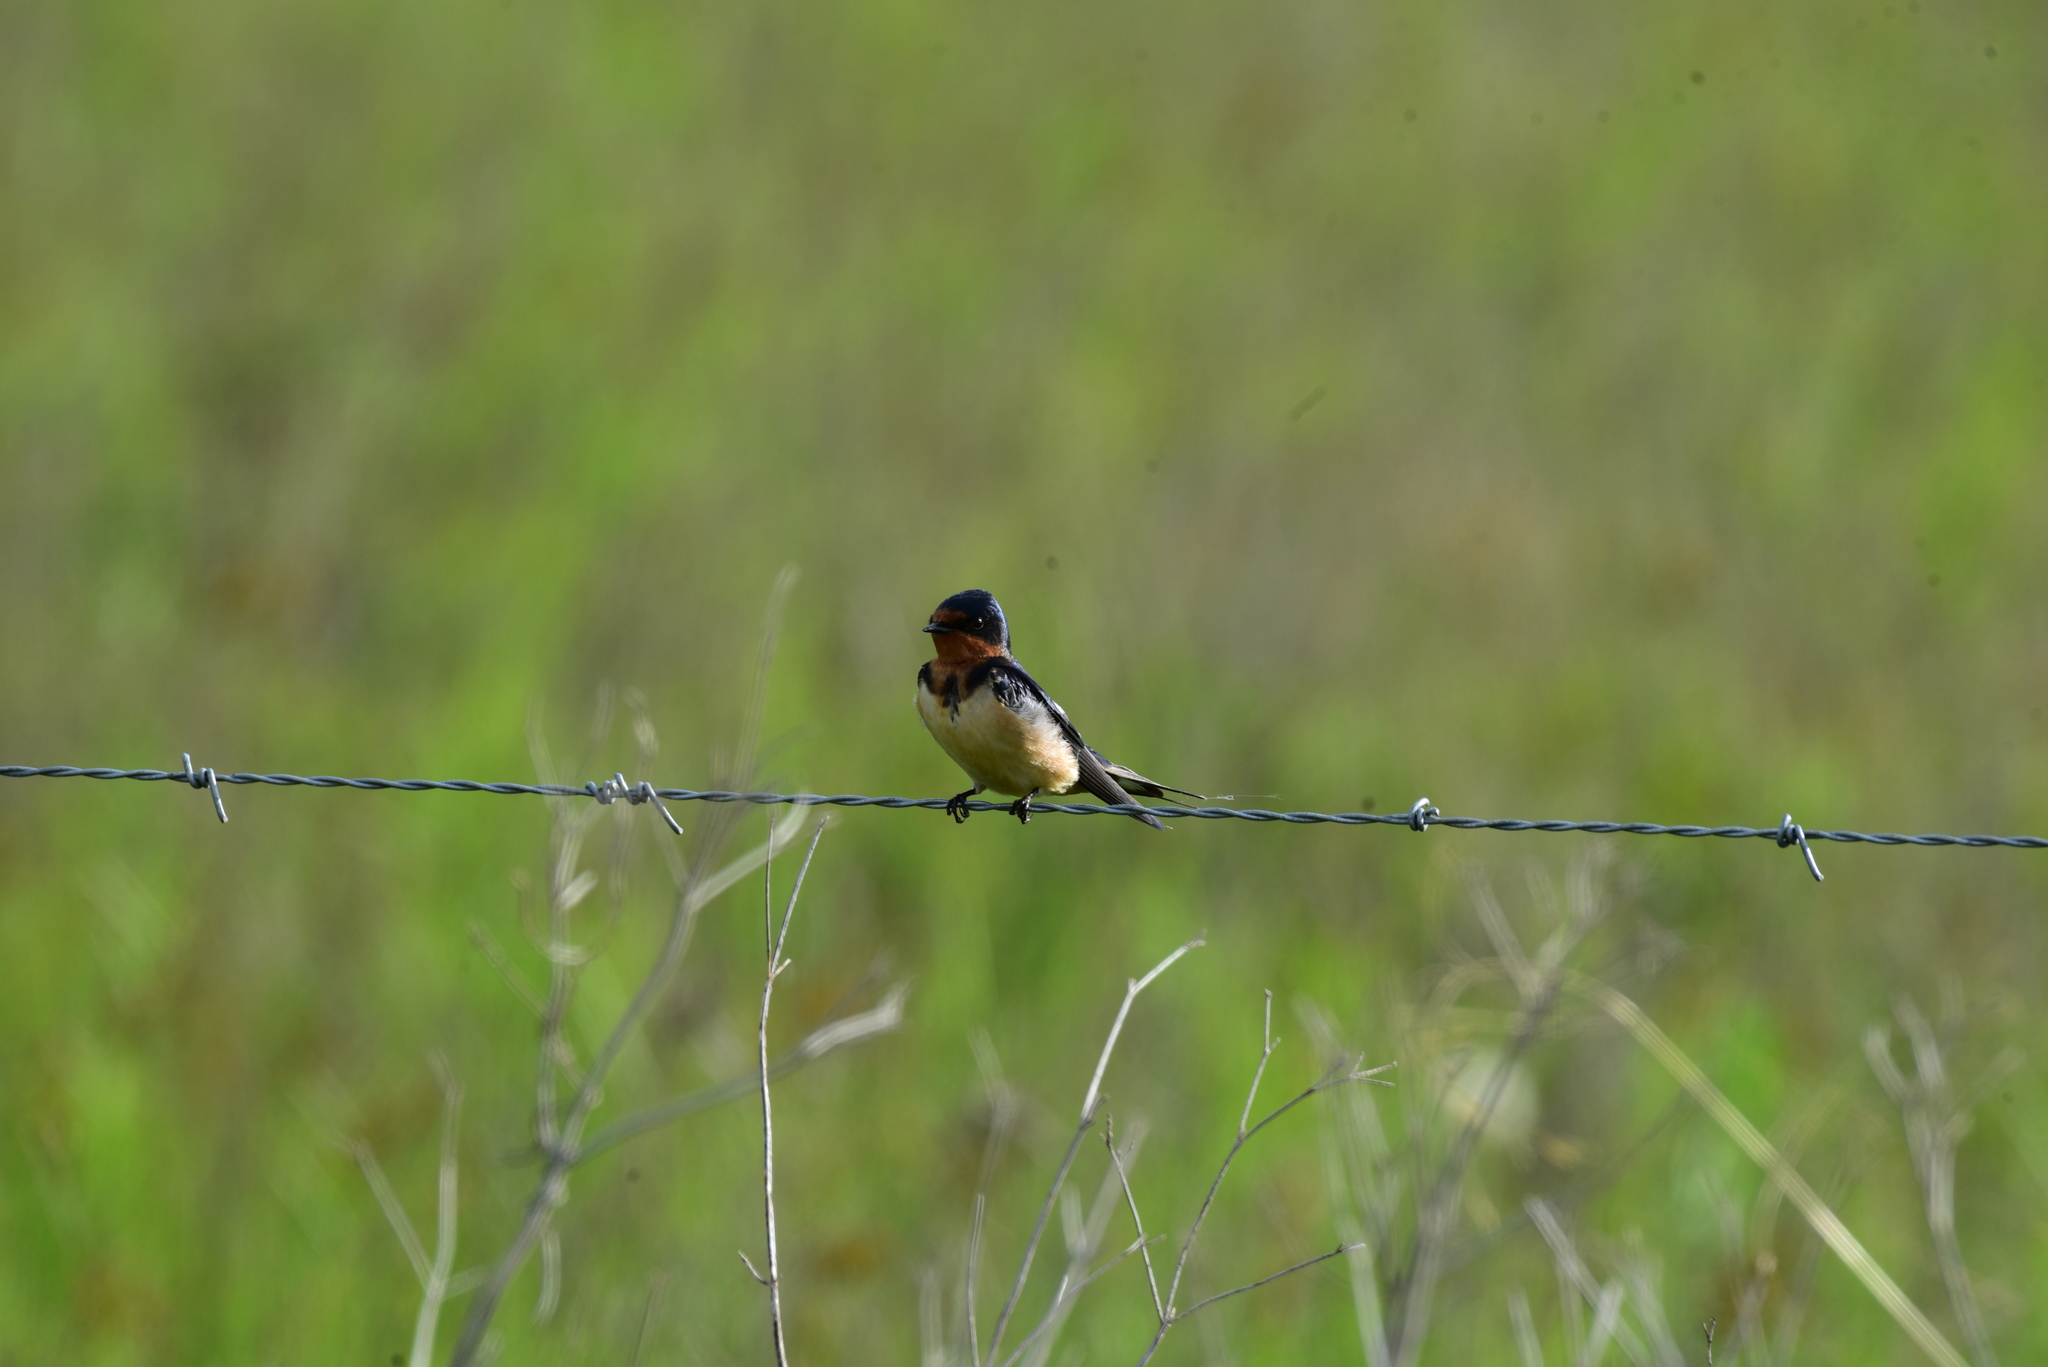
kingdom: Animalia
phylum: Chordata
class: Aves
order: Passeriformes
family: Hirundinidae
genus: Hirundo
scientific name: Hirundo rustica
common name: Barn swallow
